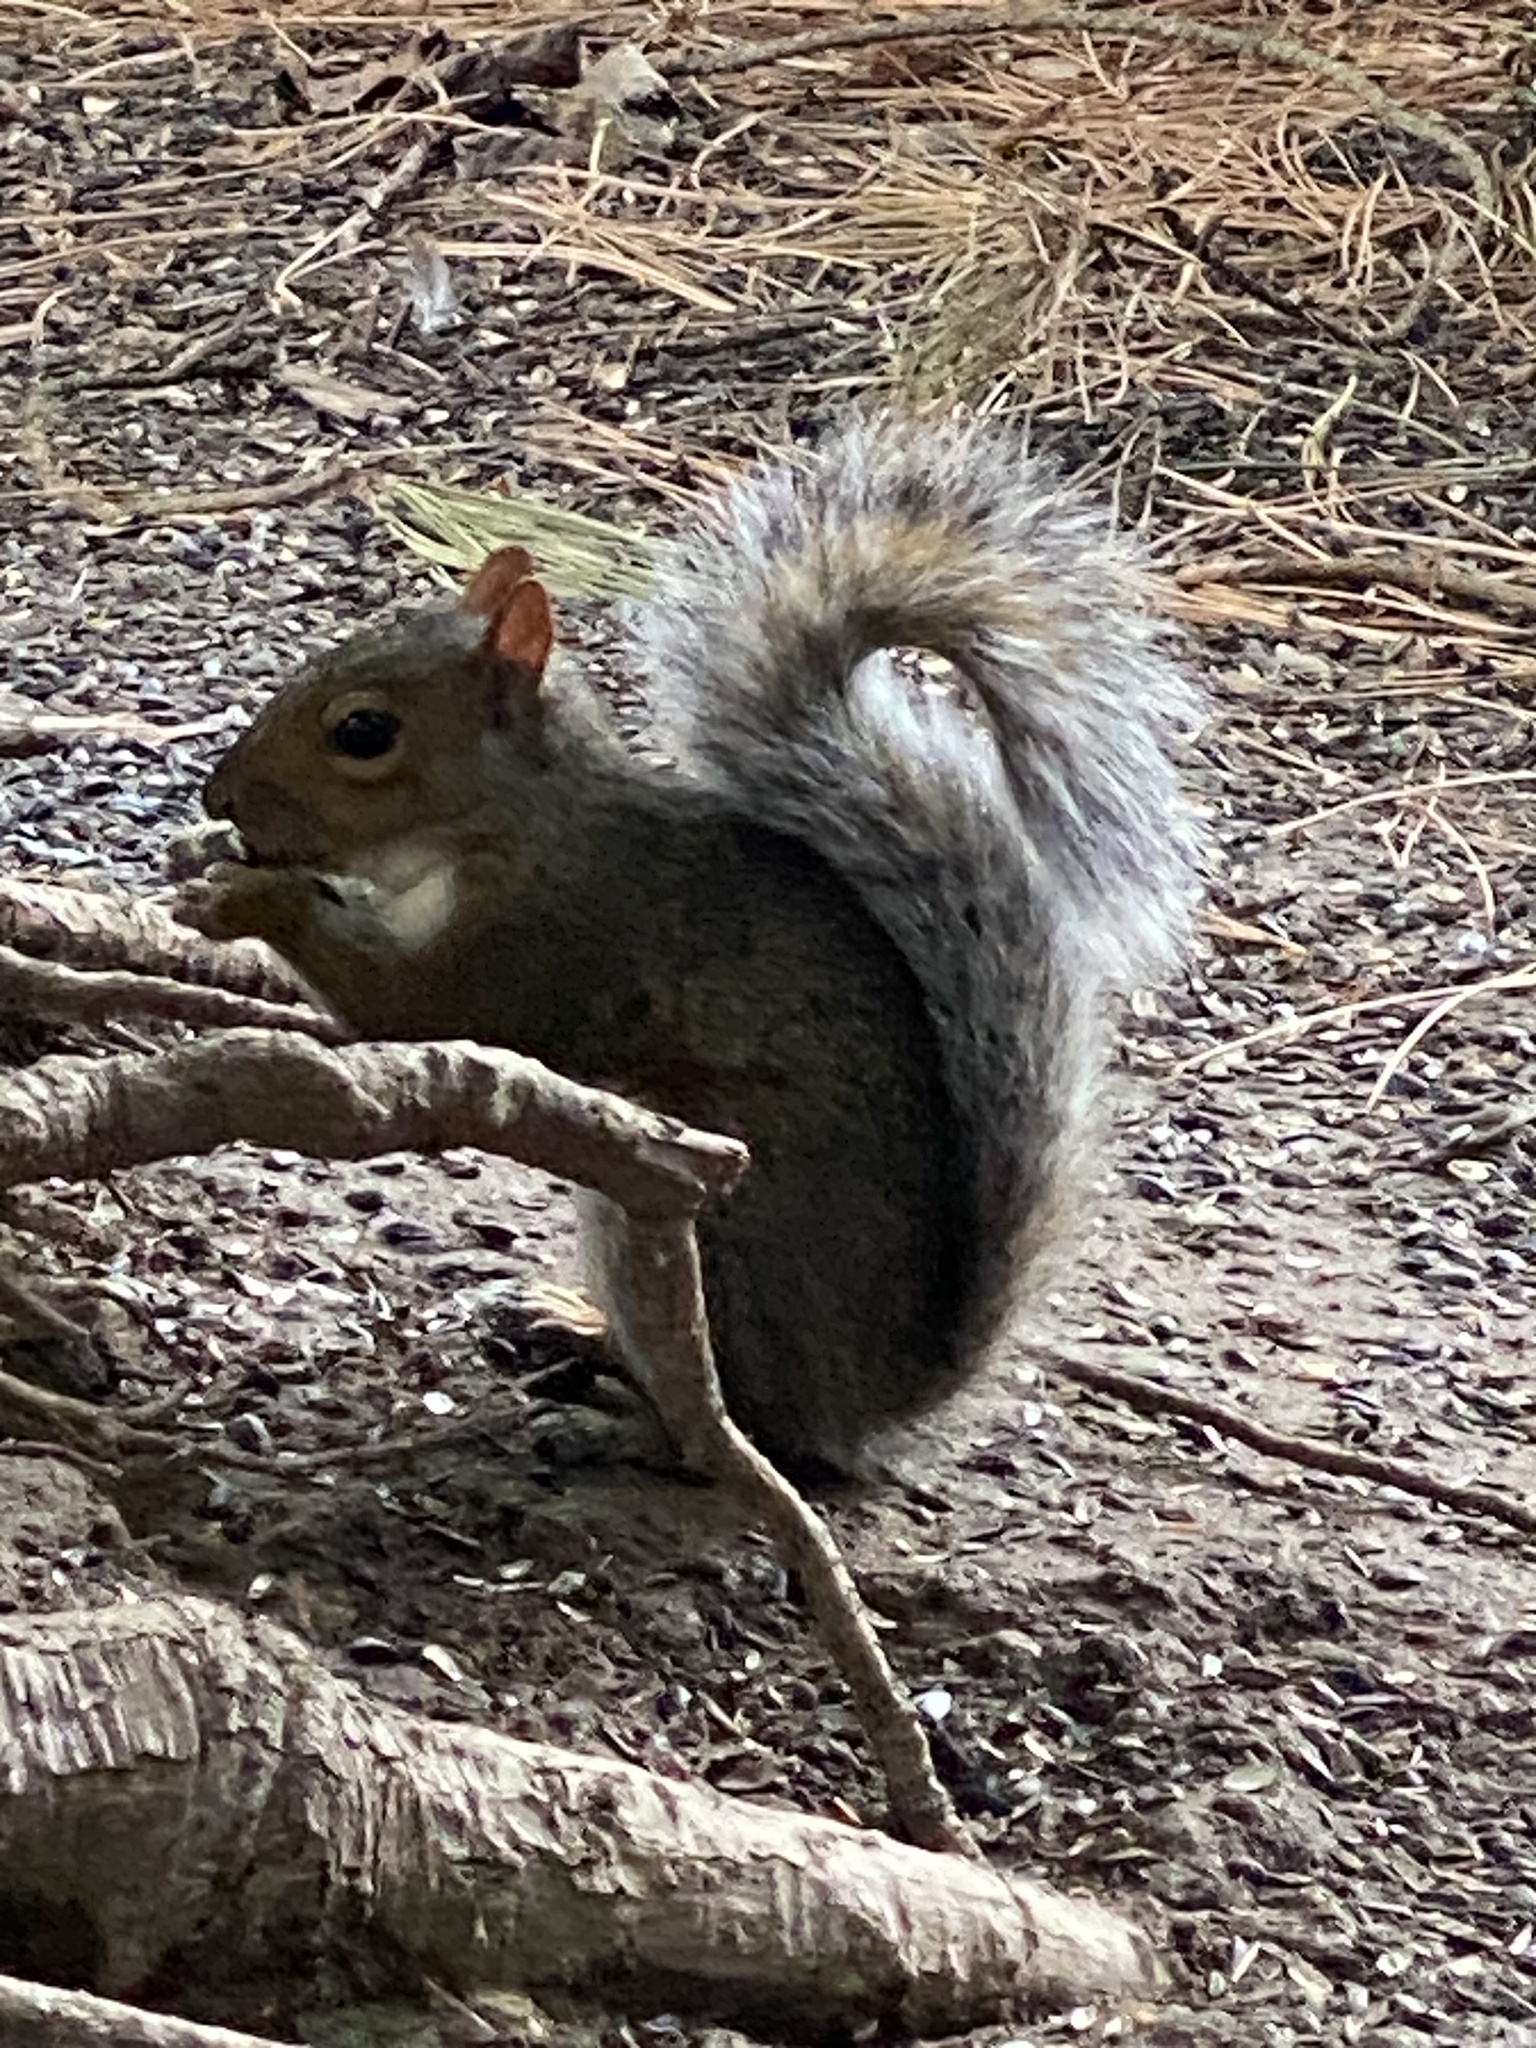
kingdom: Animalia
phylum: Chordata
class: Mammalia
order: Rodentia
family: Sciuridae
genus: Sciurus
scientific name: Sciurus carolinensis
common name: Eastern gray squirrel
